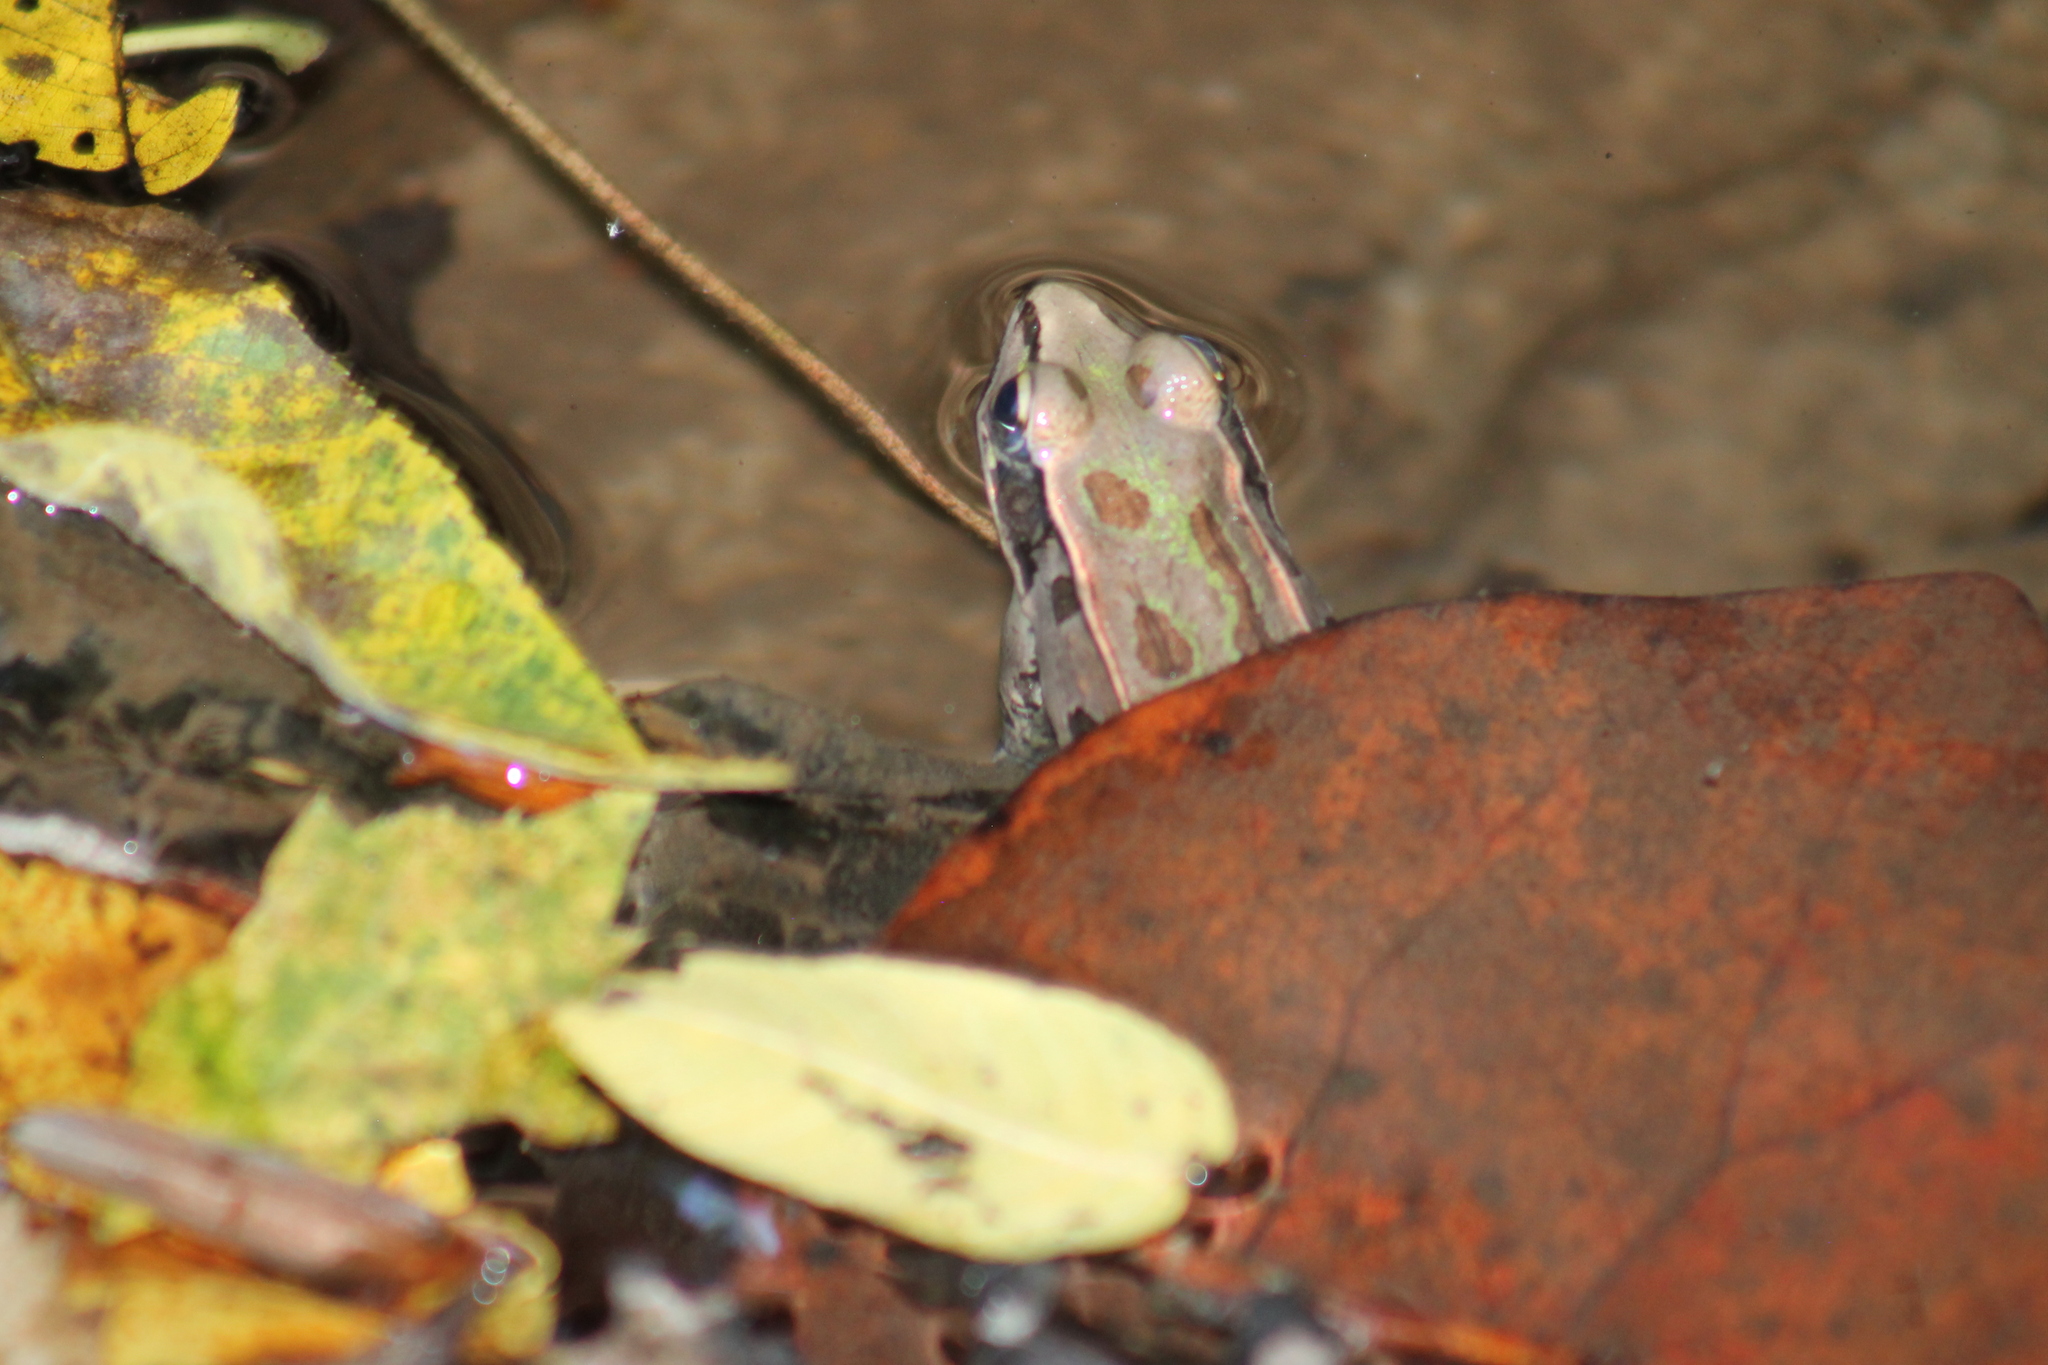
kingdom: Animalia
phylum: Chordata
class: Amphibia
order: Anura
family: Ranidae
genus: Lithobates
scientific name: Lithobates sphenocephalus
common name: Southern leopard frog
